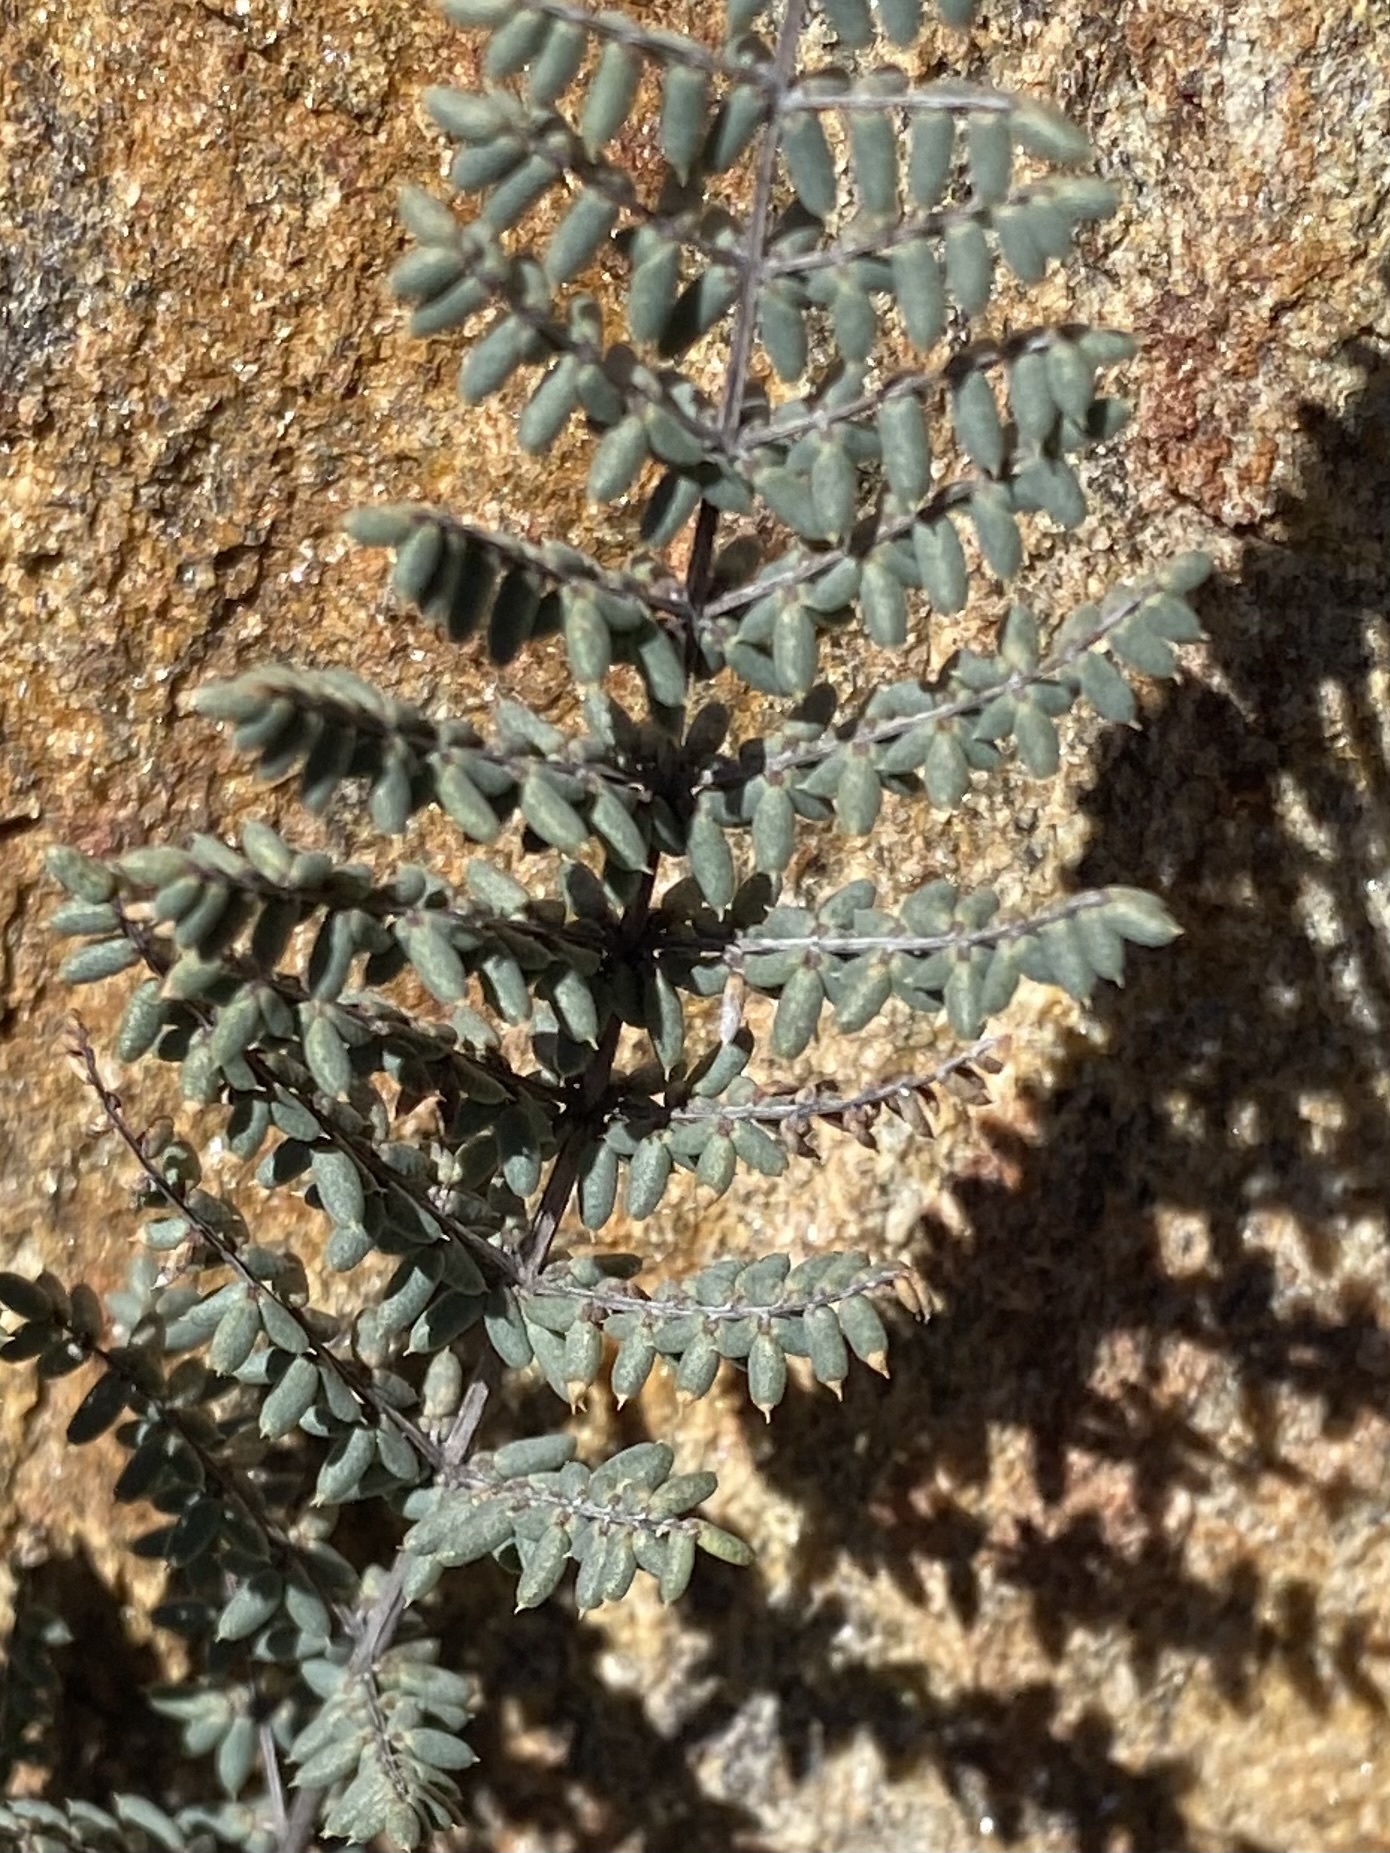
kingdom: Plantae
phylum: Tracheophyta
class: Polypodiopsida
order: Polypodiales
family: Pteridaceae
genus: Pellaea
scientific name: Pellaea mucronata
